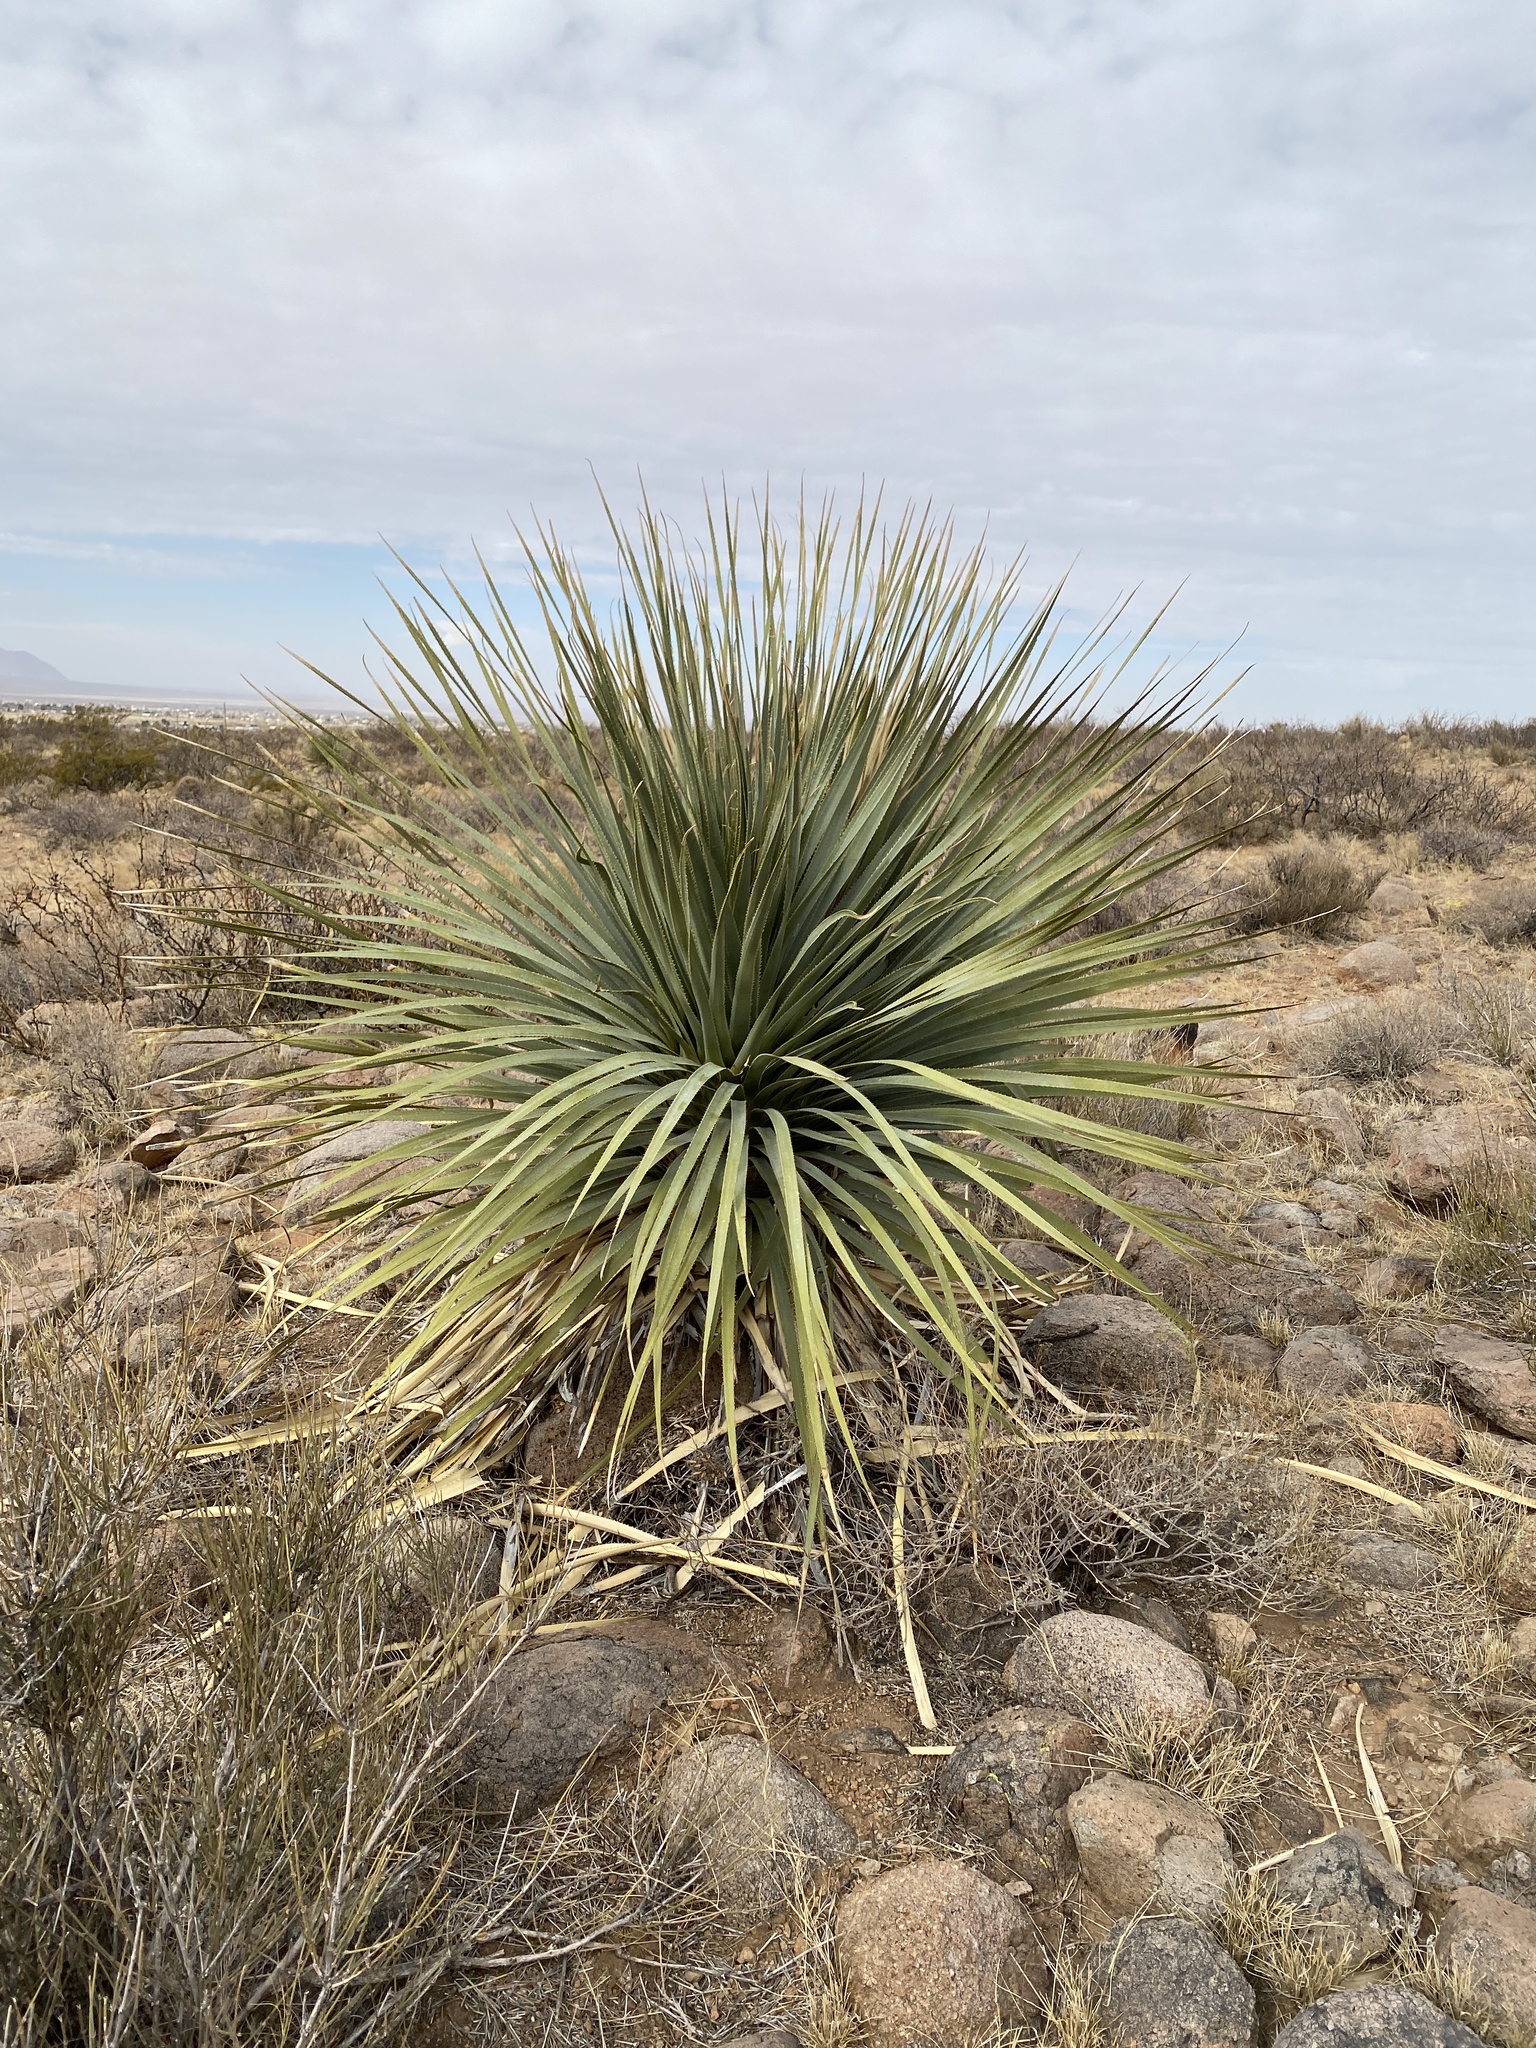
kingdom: Plantae
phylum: Tracheophyta
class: Liliopsida
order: Asparagales
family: Asparagaceae
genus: Dasylirion
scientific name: Dasylirion wheeleri
